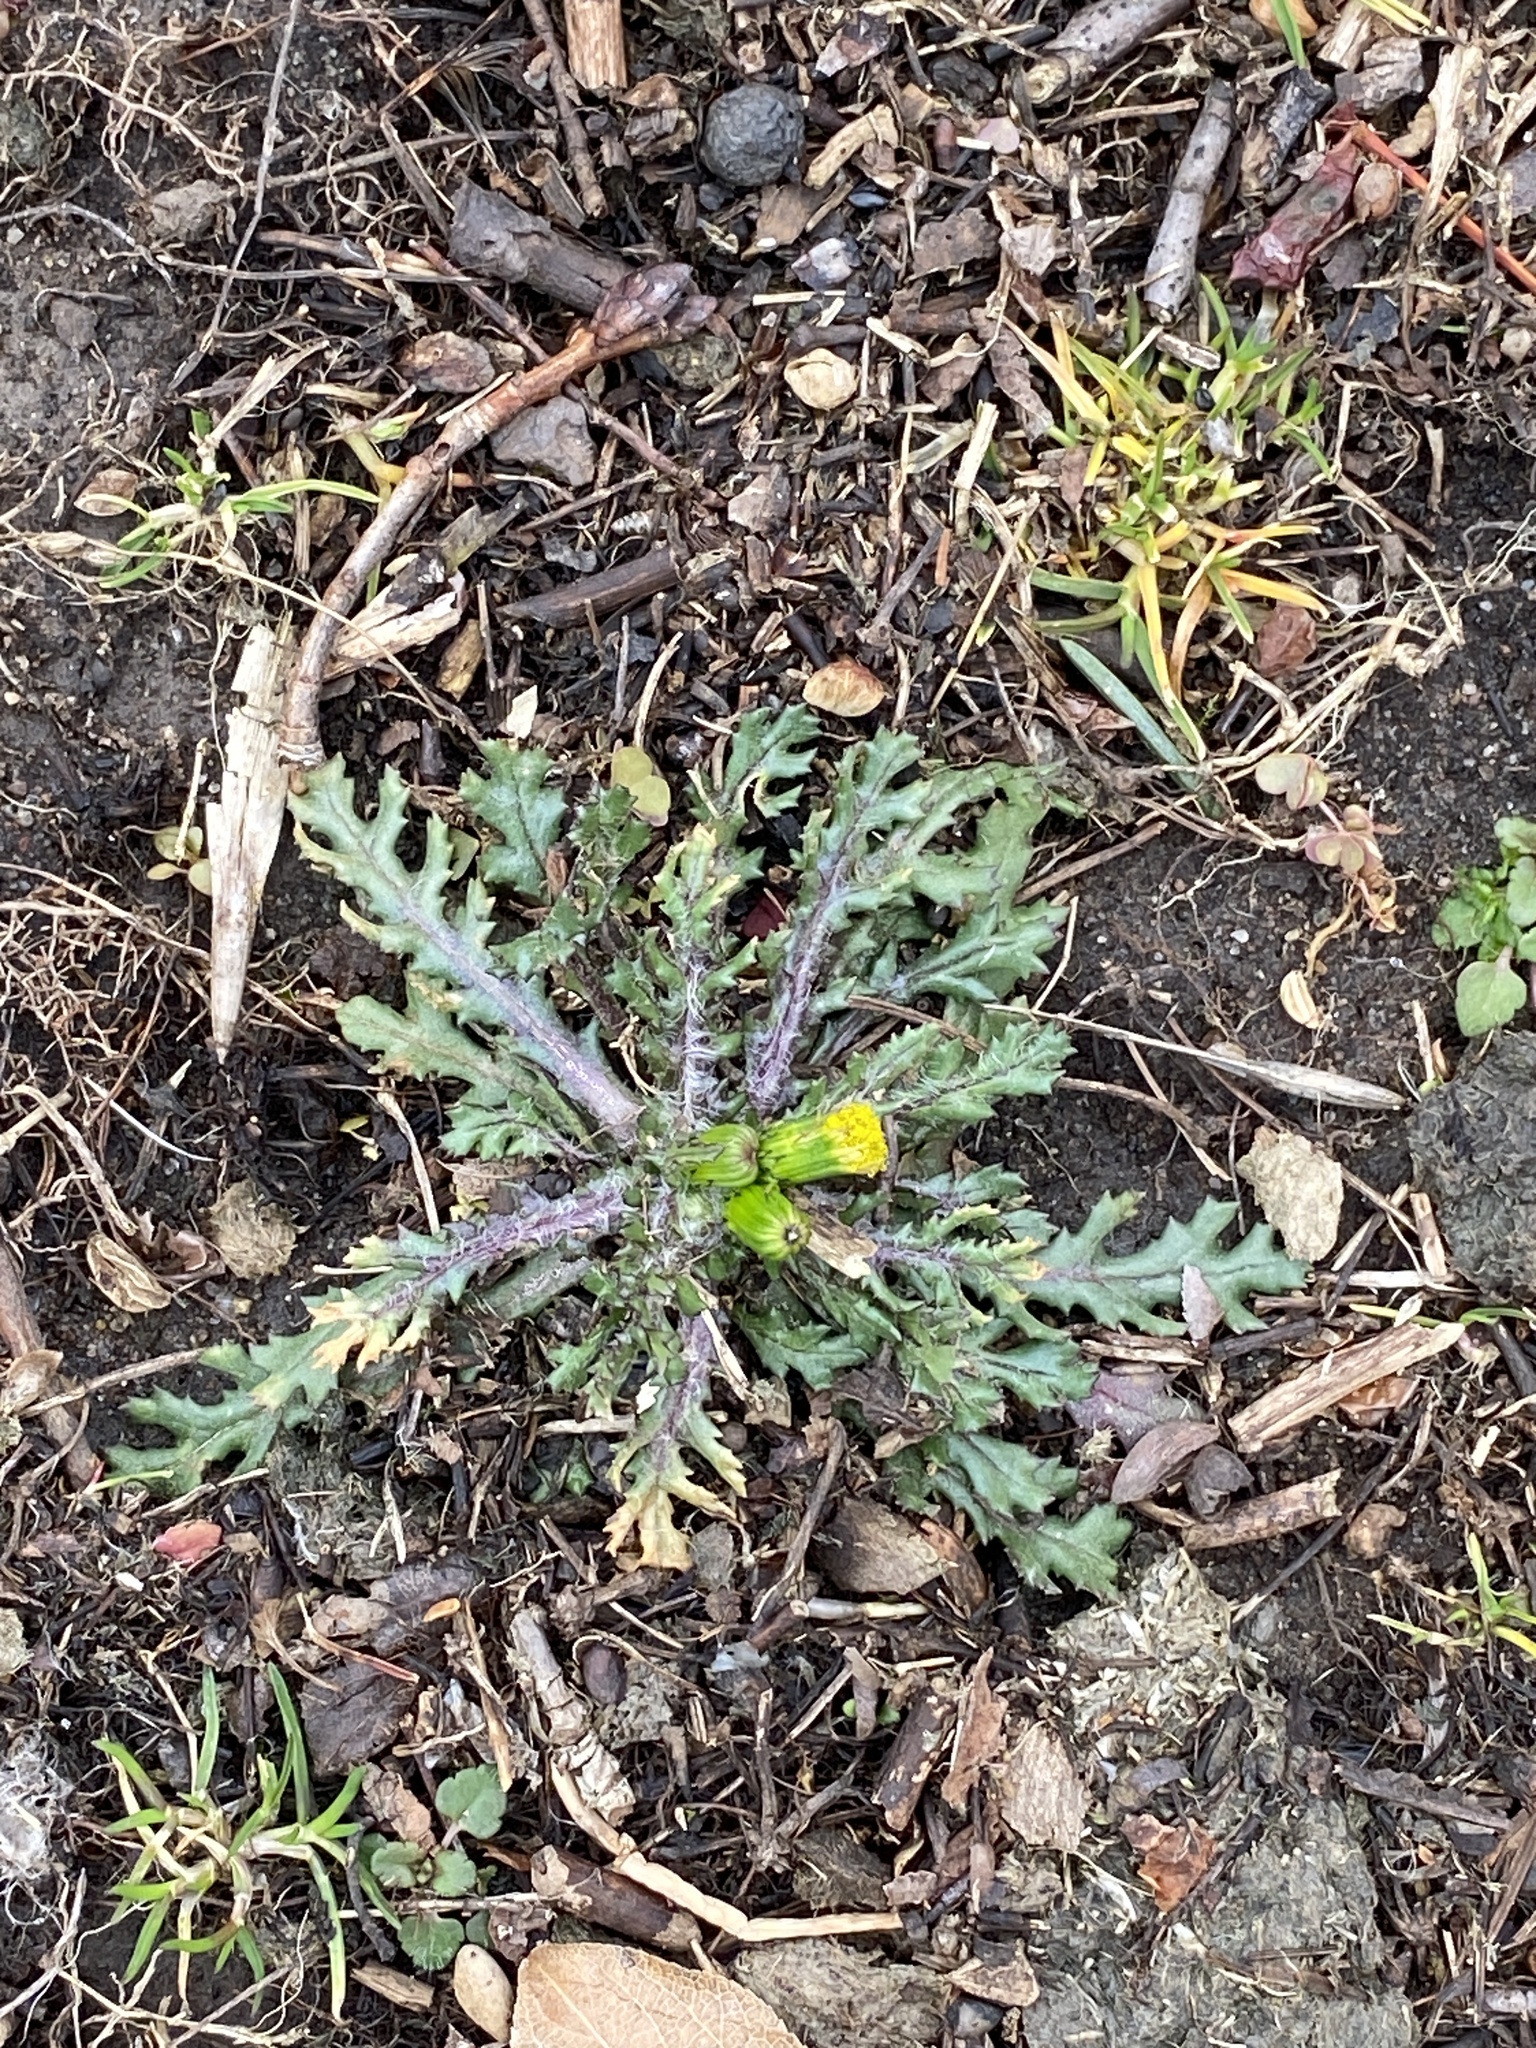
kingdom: Plantae
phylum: Tracheophyta
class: Magnoliopsida
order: Asterales
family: Asteraceae
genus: Senecio
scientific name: Senecio vulgaris
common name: Old-man-in-the-spring
